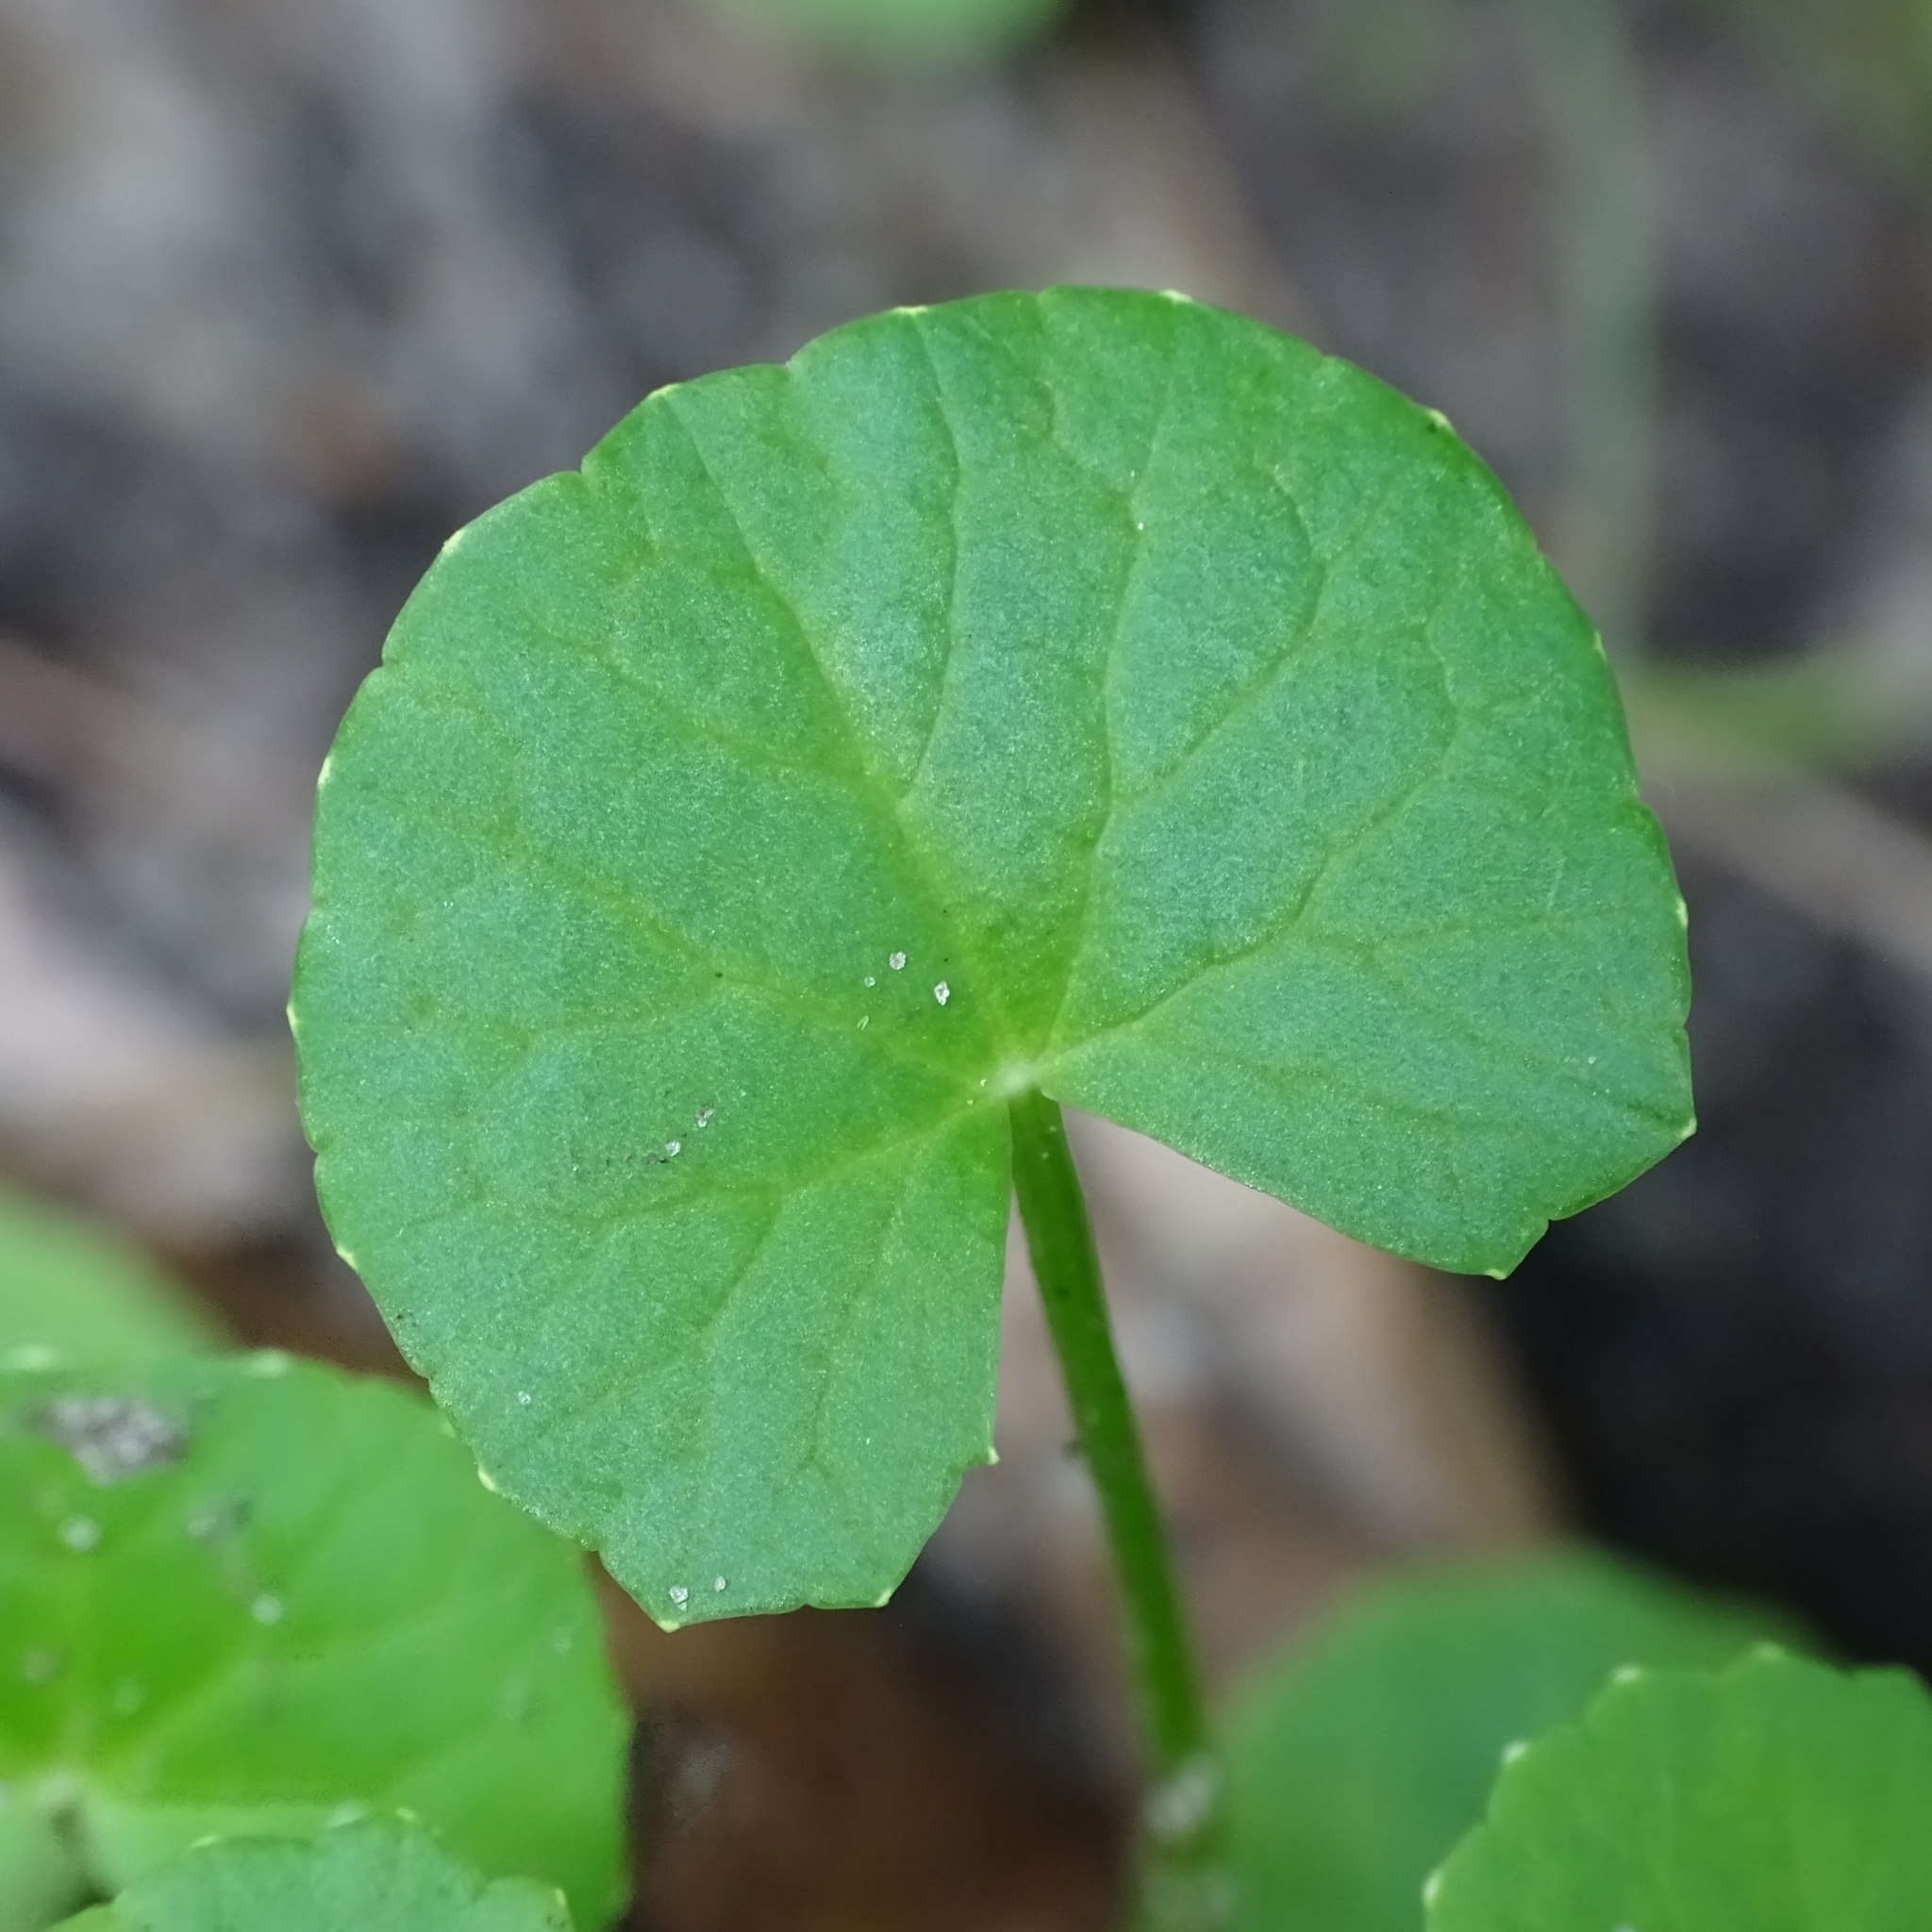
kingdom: Plantae
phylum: Tracheophyta
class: Magnoliopsida
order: Apiales
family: Apiaceae
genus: Centella
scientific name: Centella asiatica
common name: Spadeleaf
